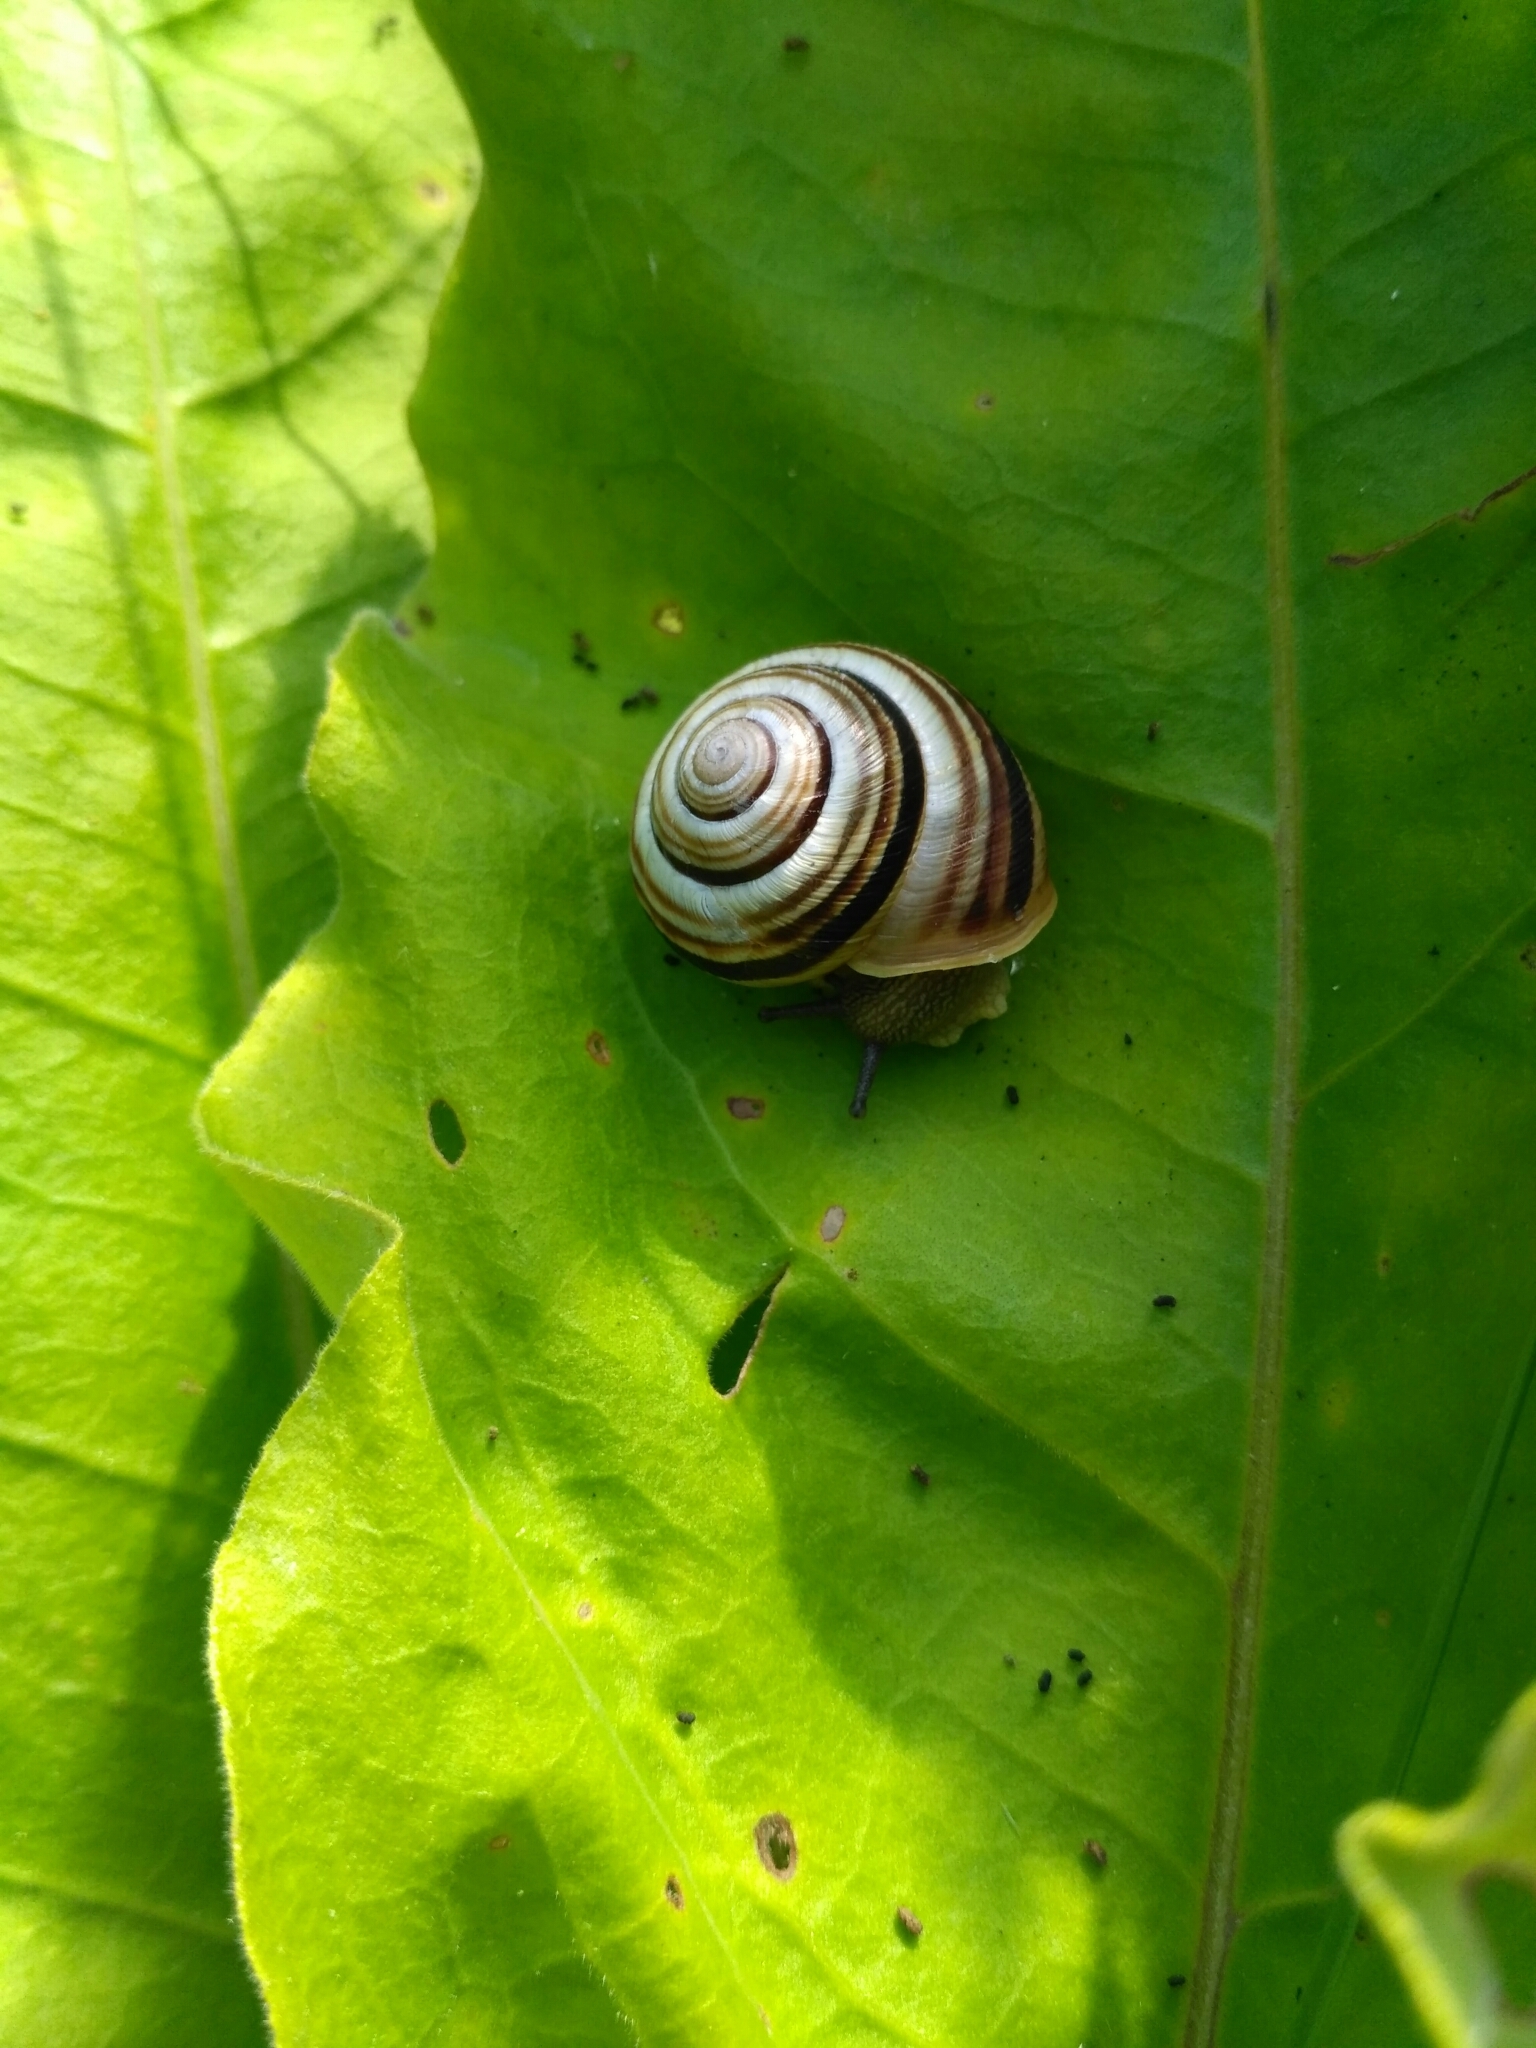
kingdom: Animalia
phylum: Mollusca
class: Gastropoda
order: Stylommatophora
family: Helicidae
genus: Caucasotachea
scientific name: Caucasotachea vindobonensis
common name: European helicid land snail
